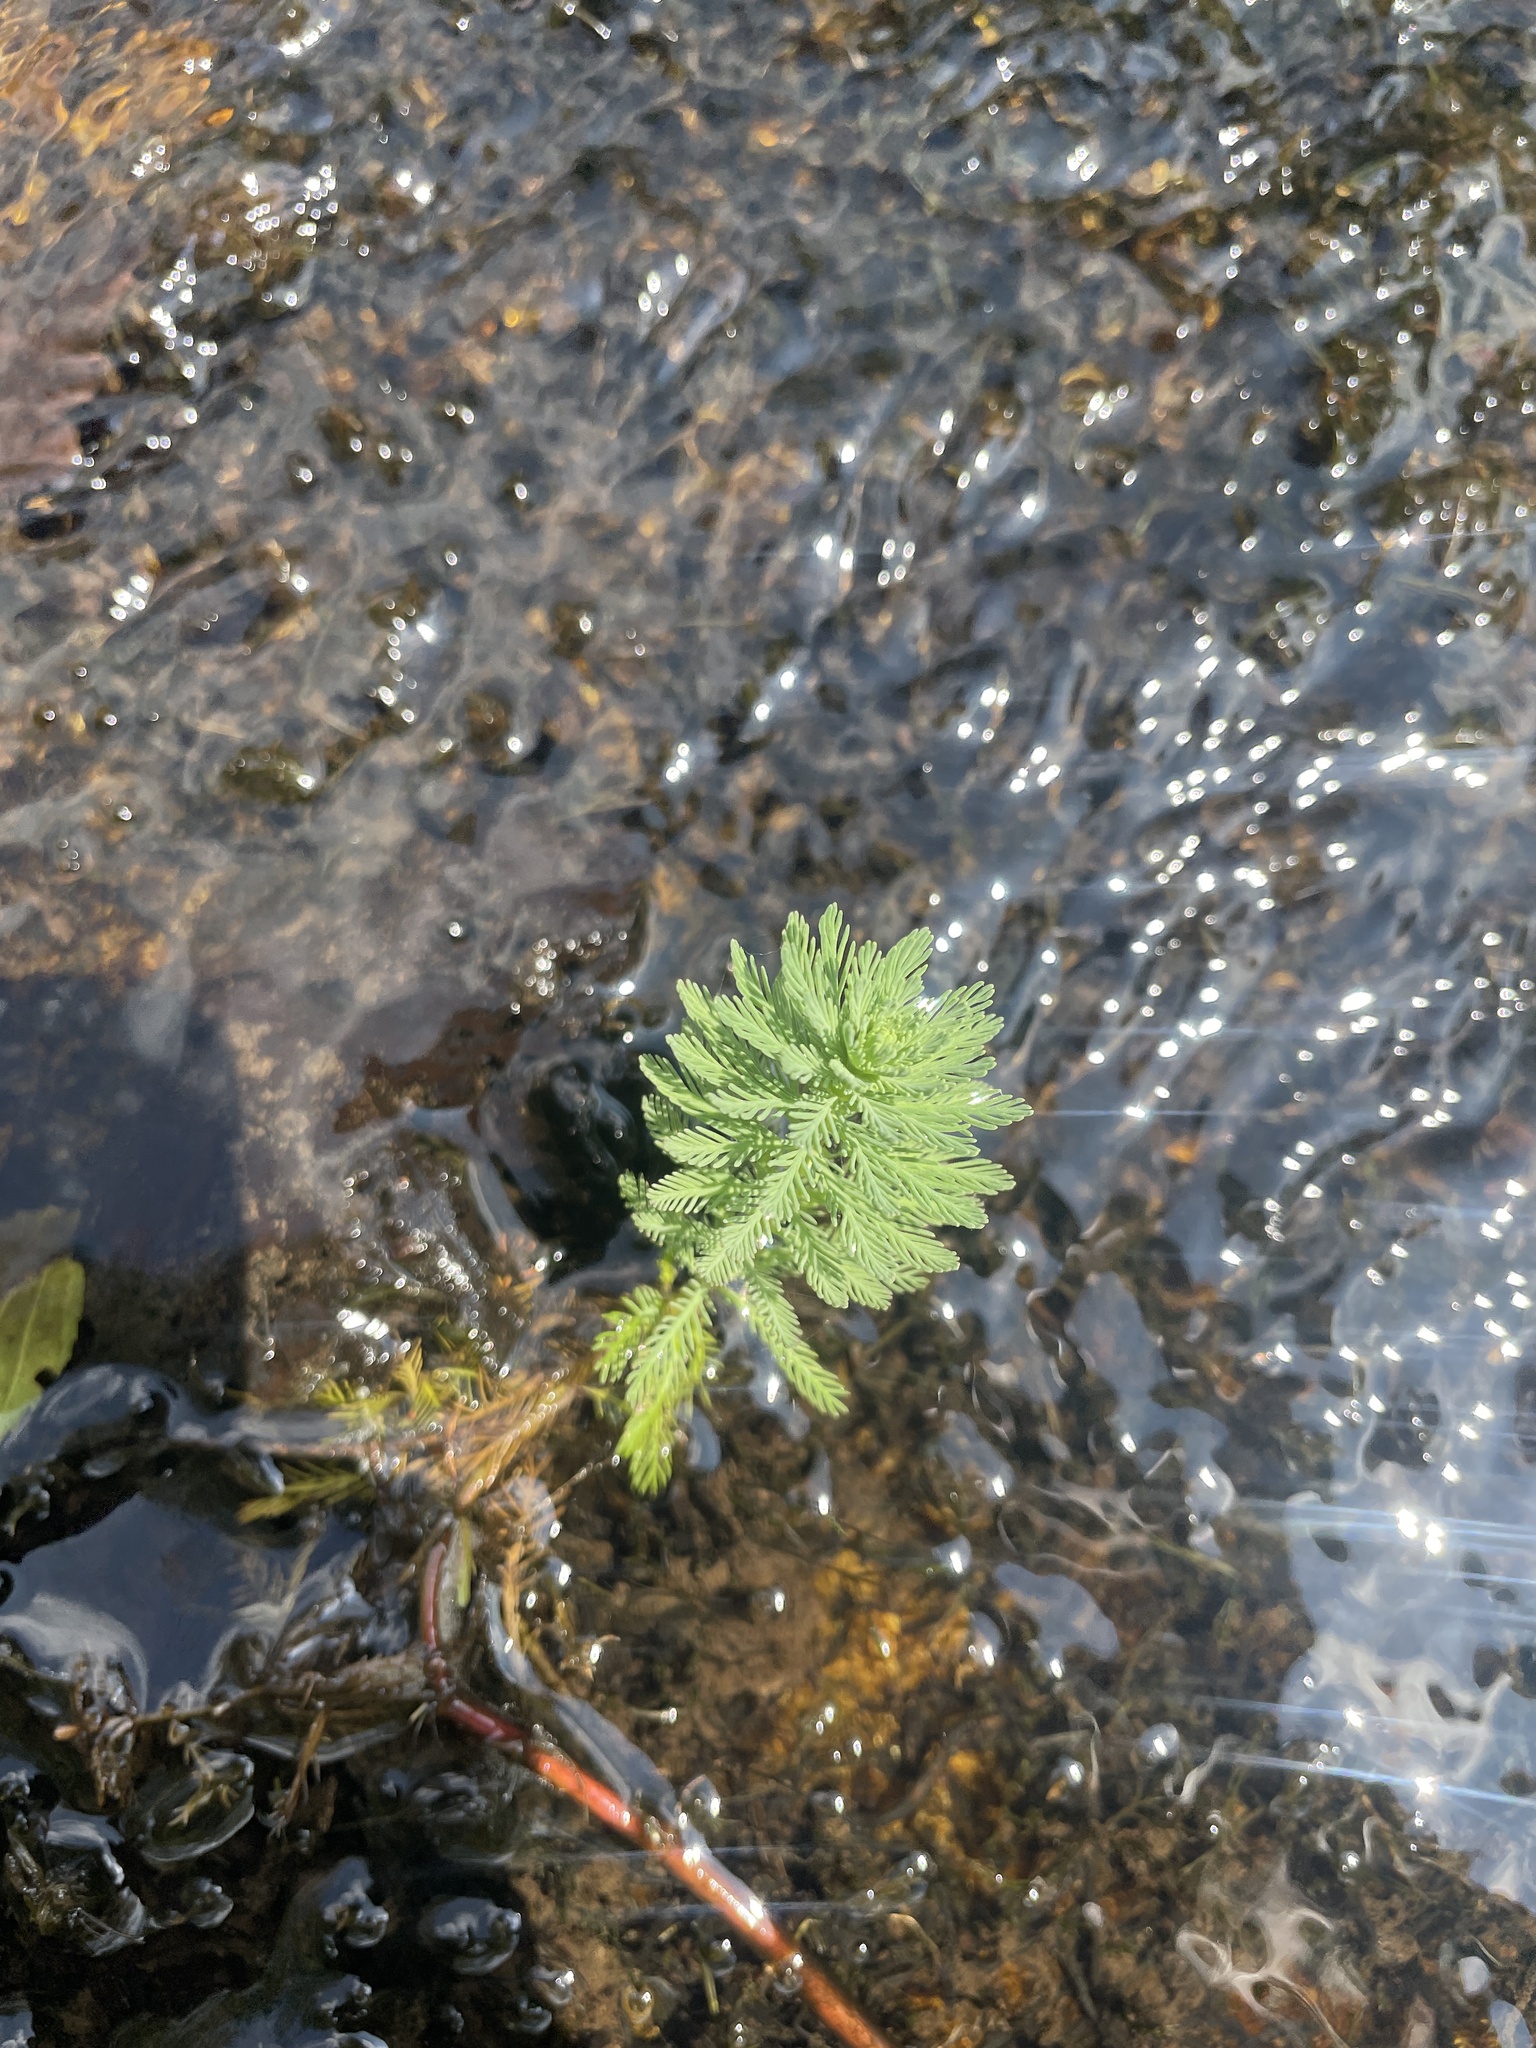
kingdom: Plantae
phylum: Tracheophyta
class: Magnoliopsida
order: Saxifragales
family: Haloragaceae
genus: Myriophyllum
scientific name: Myriophyllum aquaticum
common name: Parrot's feather
